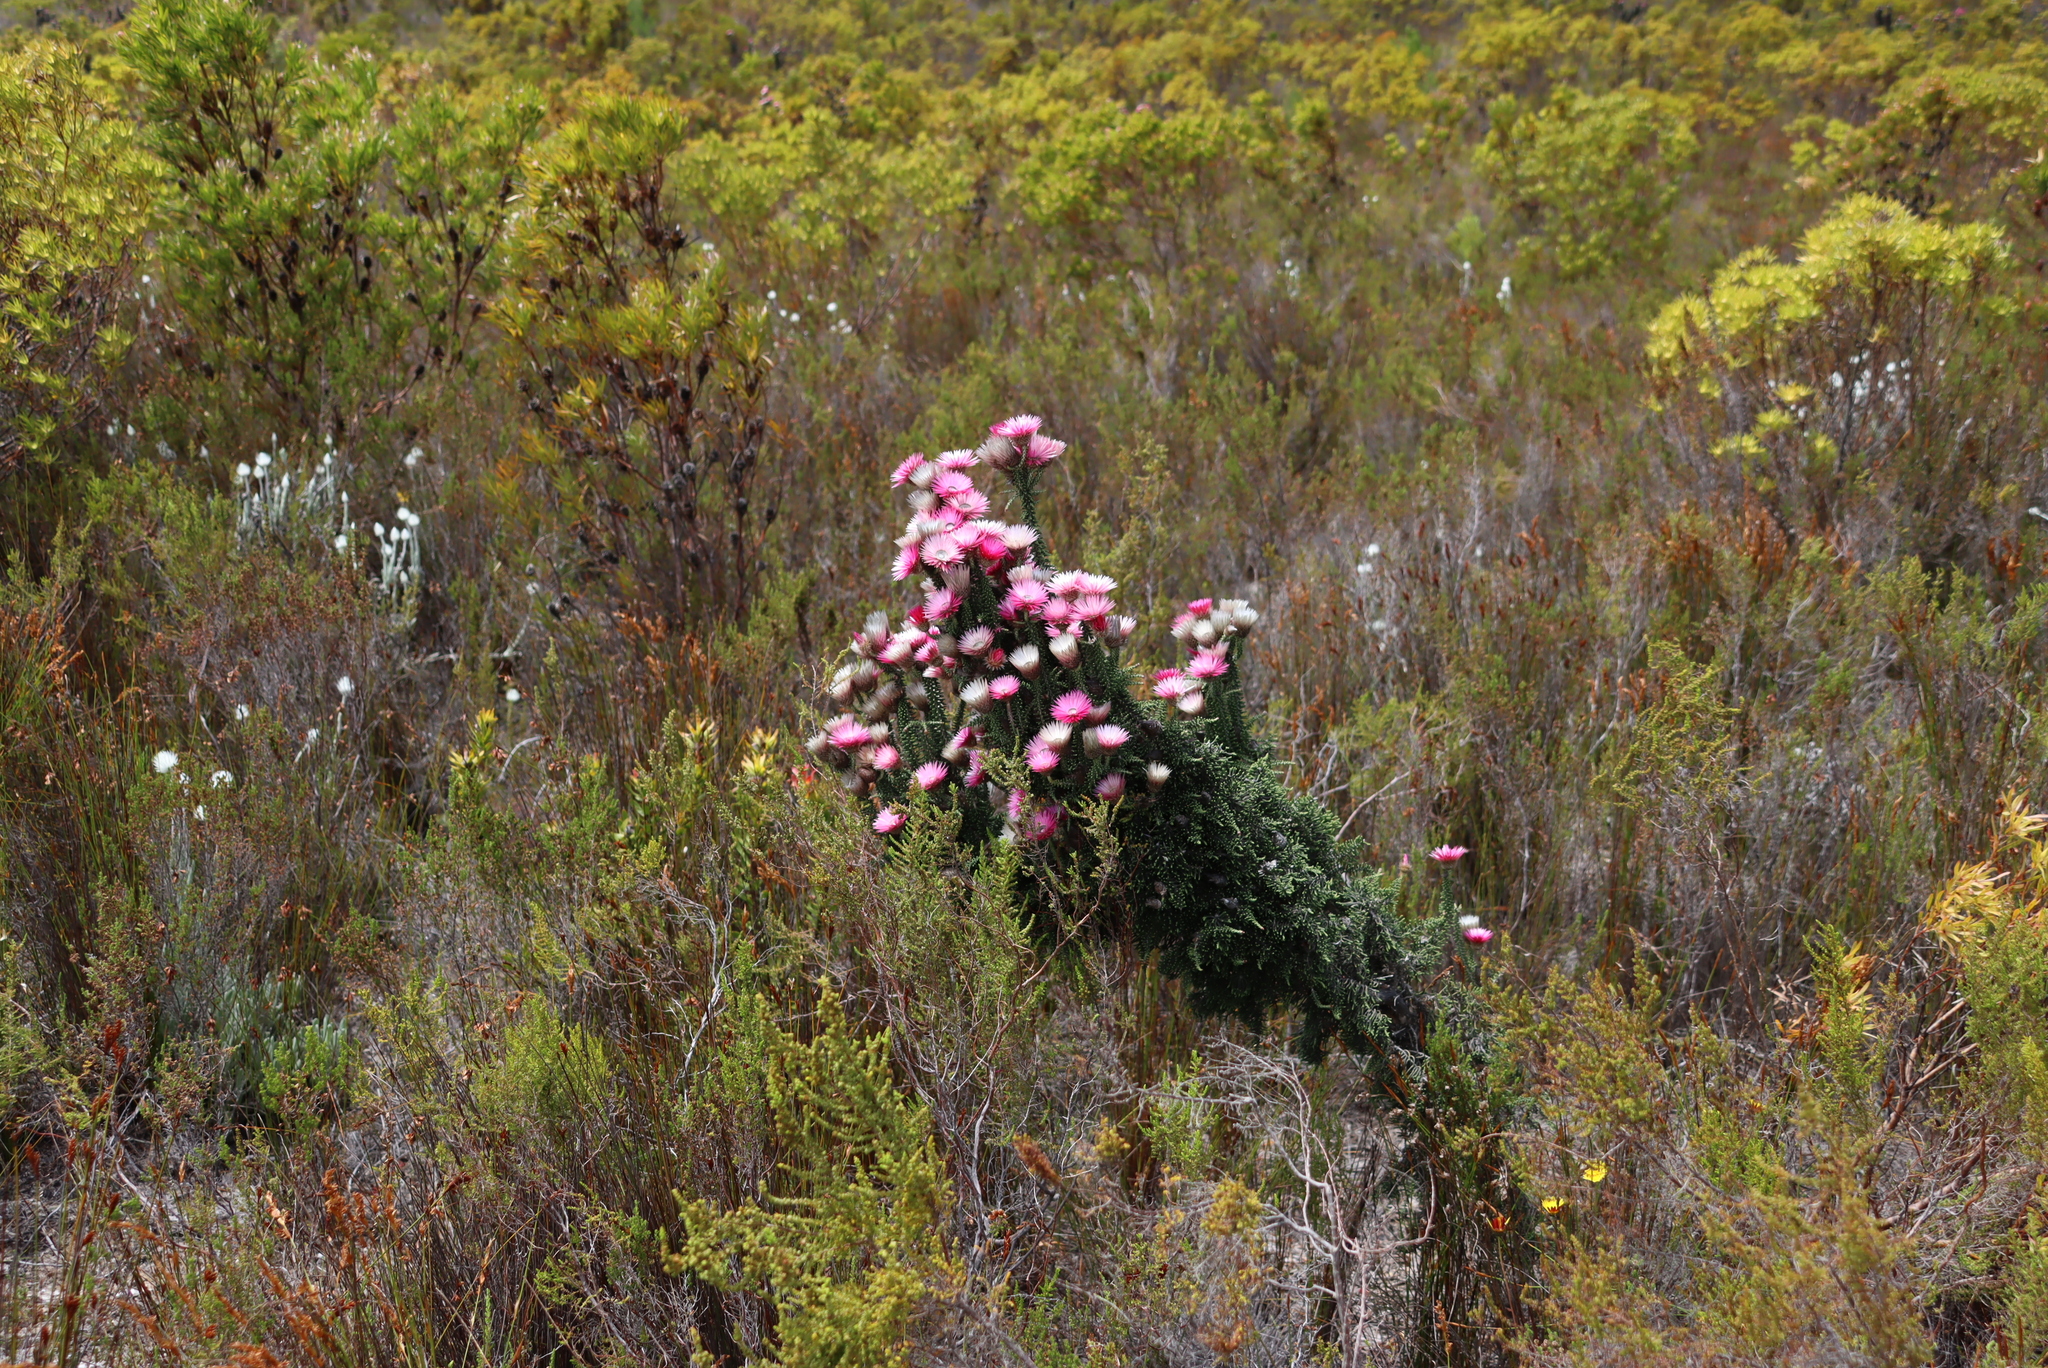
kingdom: Plantae
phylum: Tracheophyta
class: Magnoliopsida
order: Asterales
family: Asteraceae
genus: Phaenocoma
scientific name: Phaenocoma prolifera
